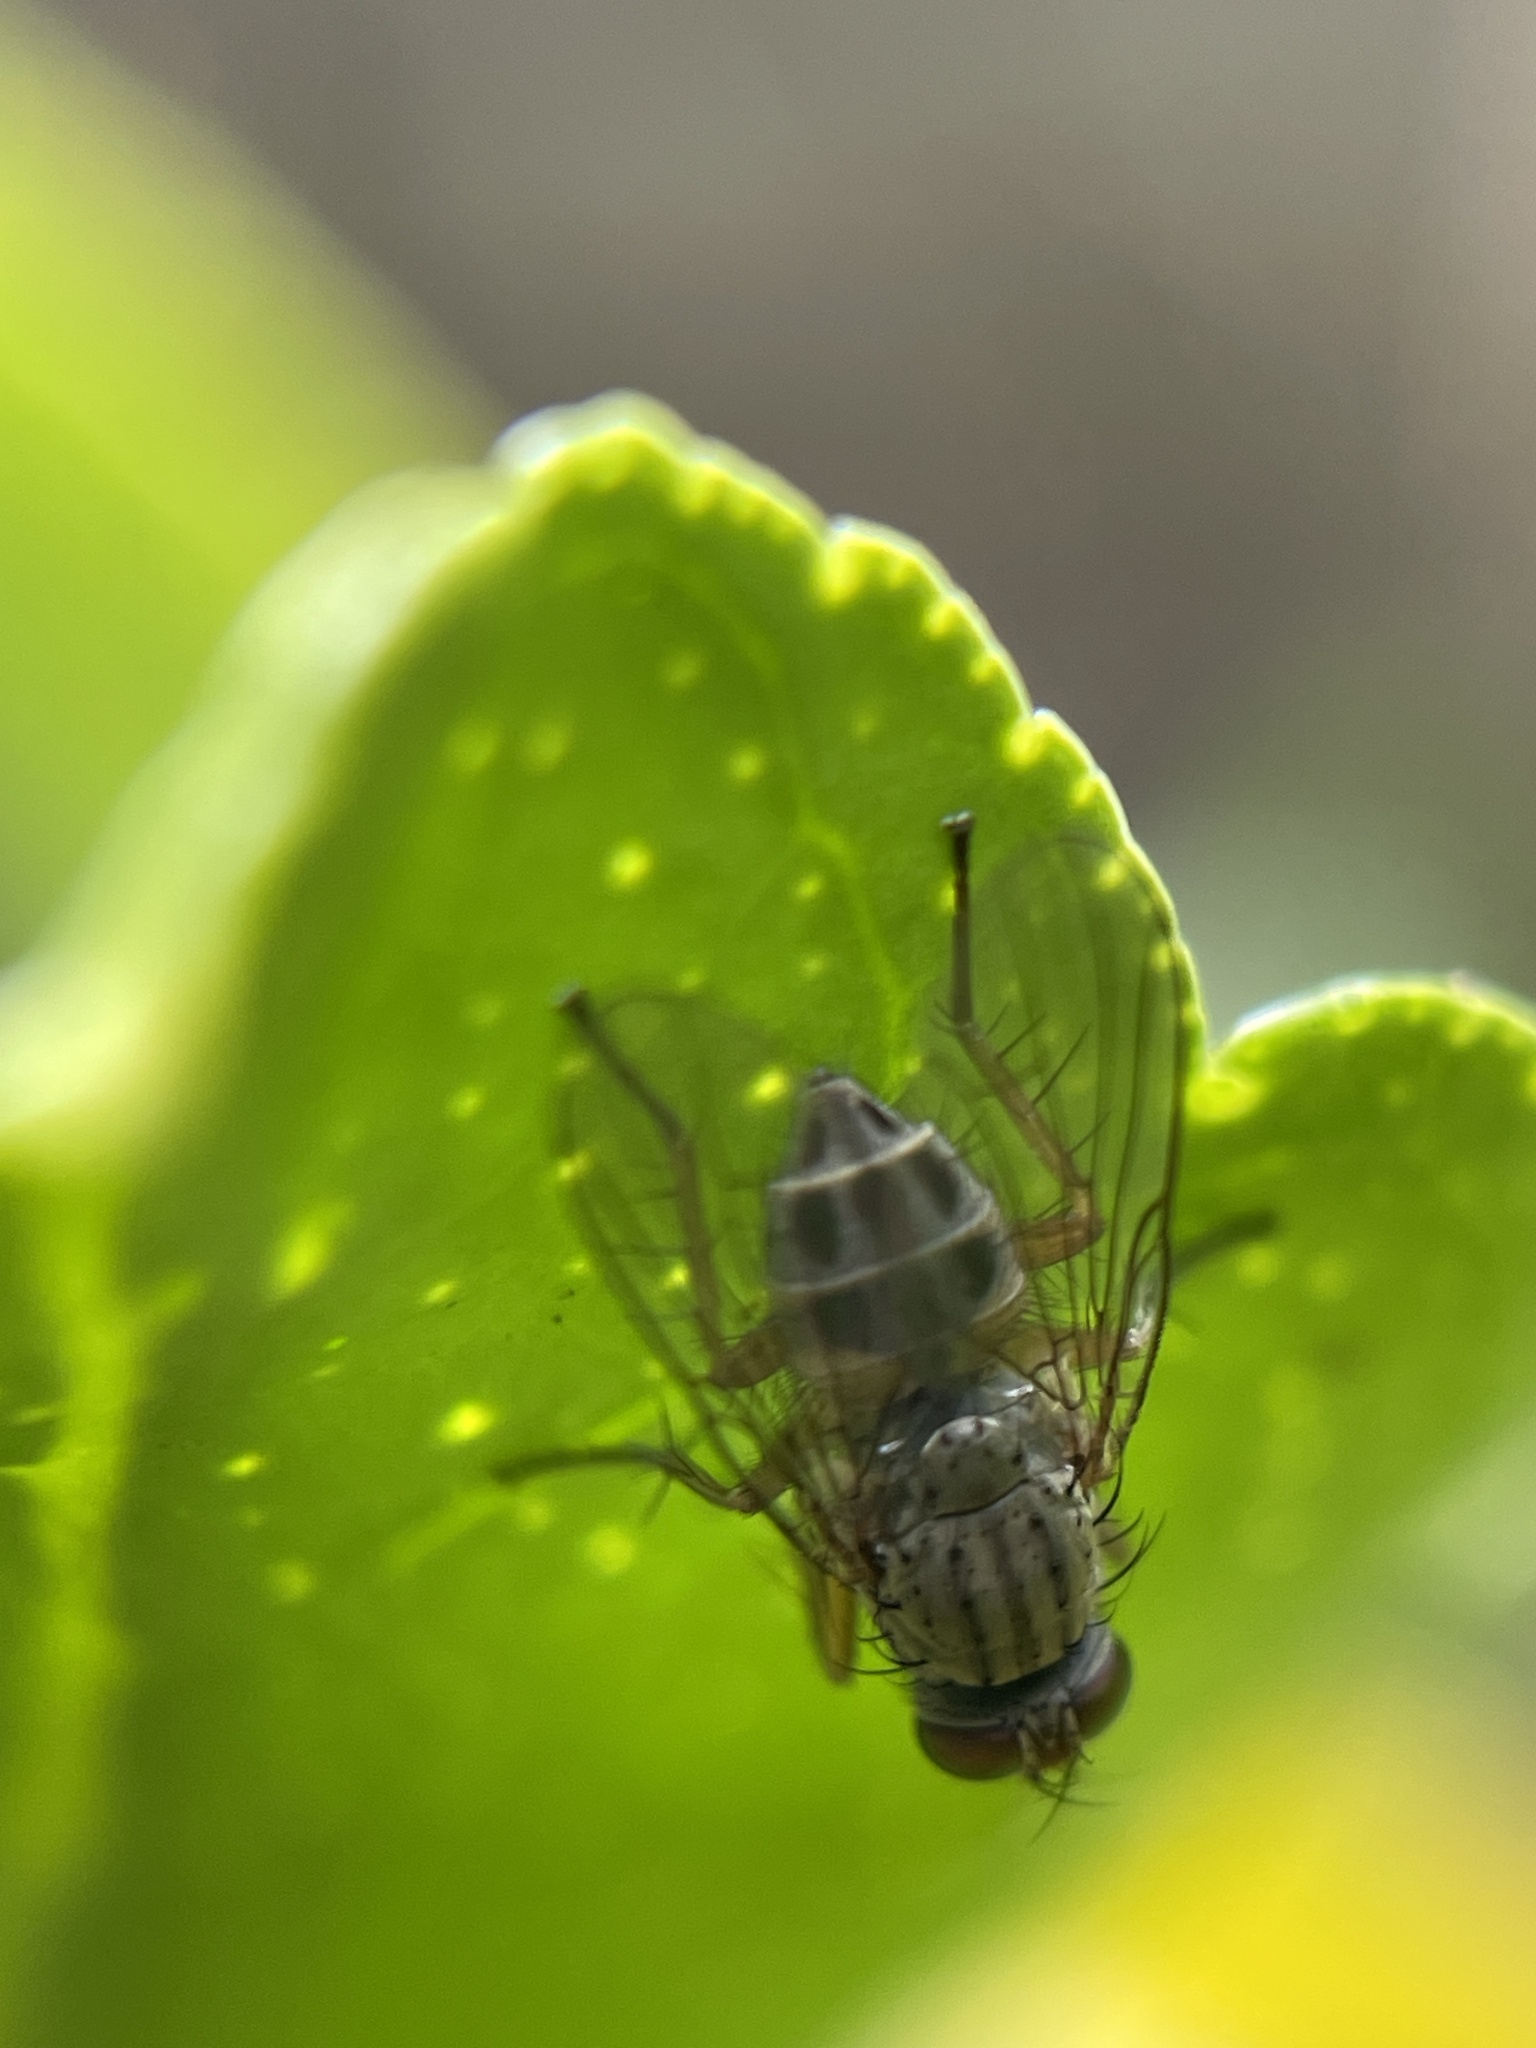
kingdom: Animalia
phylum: Arthropoda
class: Insecta
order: Diptera
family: Muscidae
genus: Pygophora
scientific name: Pygophora apicalis
